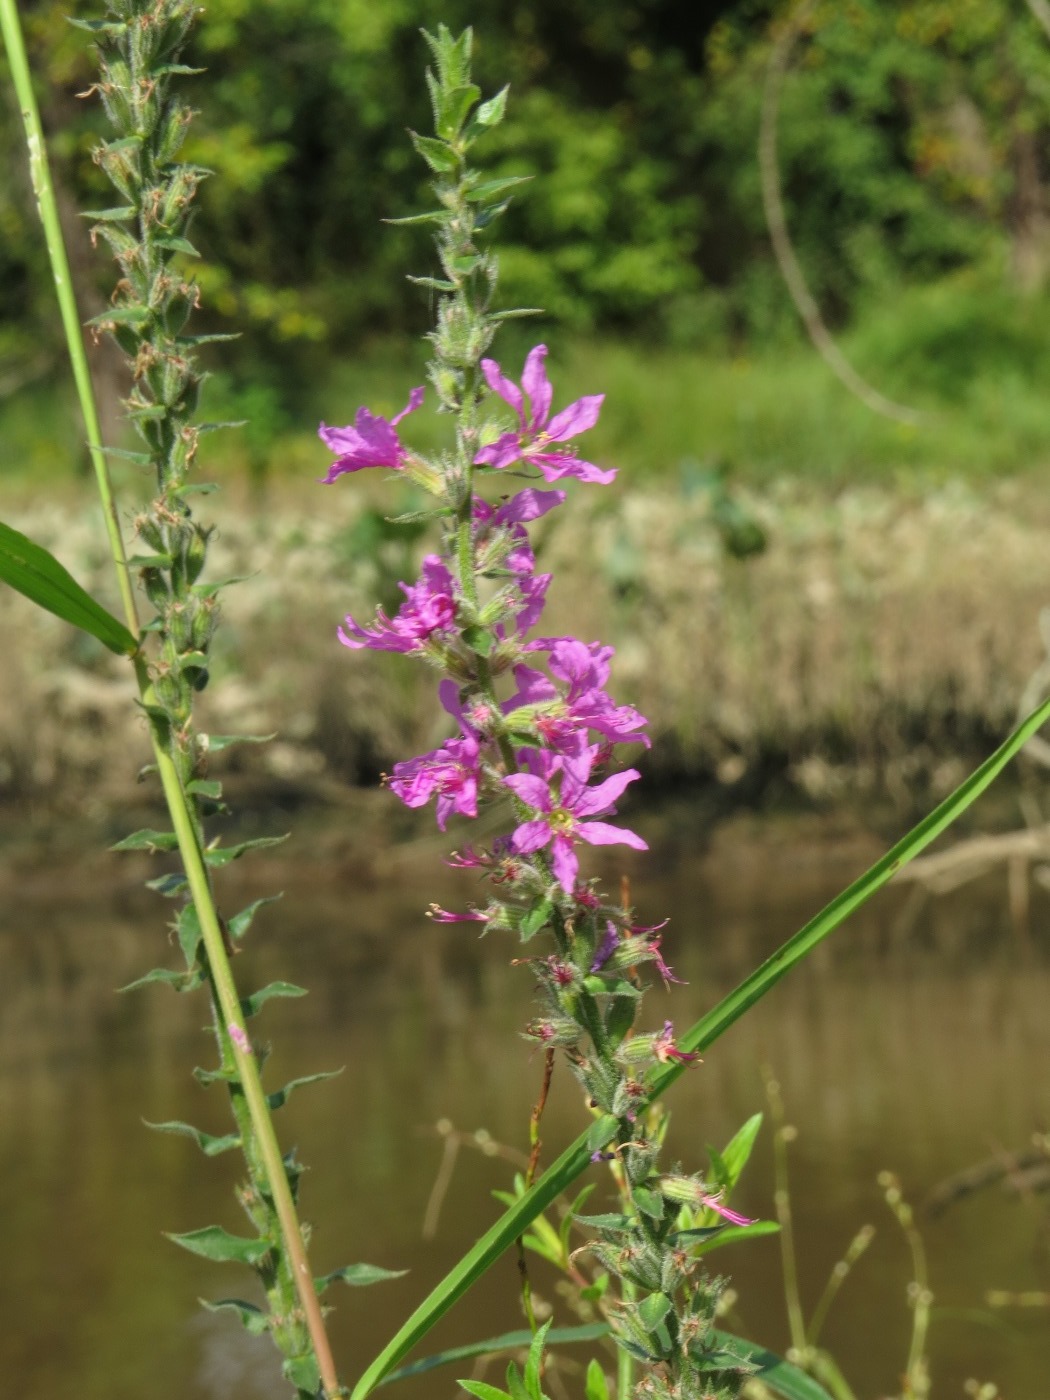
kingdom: Plantae
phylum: Tracheophyta
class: Magnoliopsida
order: Myrtales
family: Lythraceae
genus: Lythrum
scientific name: Lythrum salicaria
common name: Purple loosestrife
